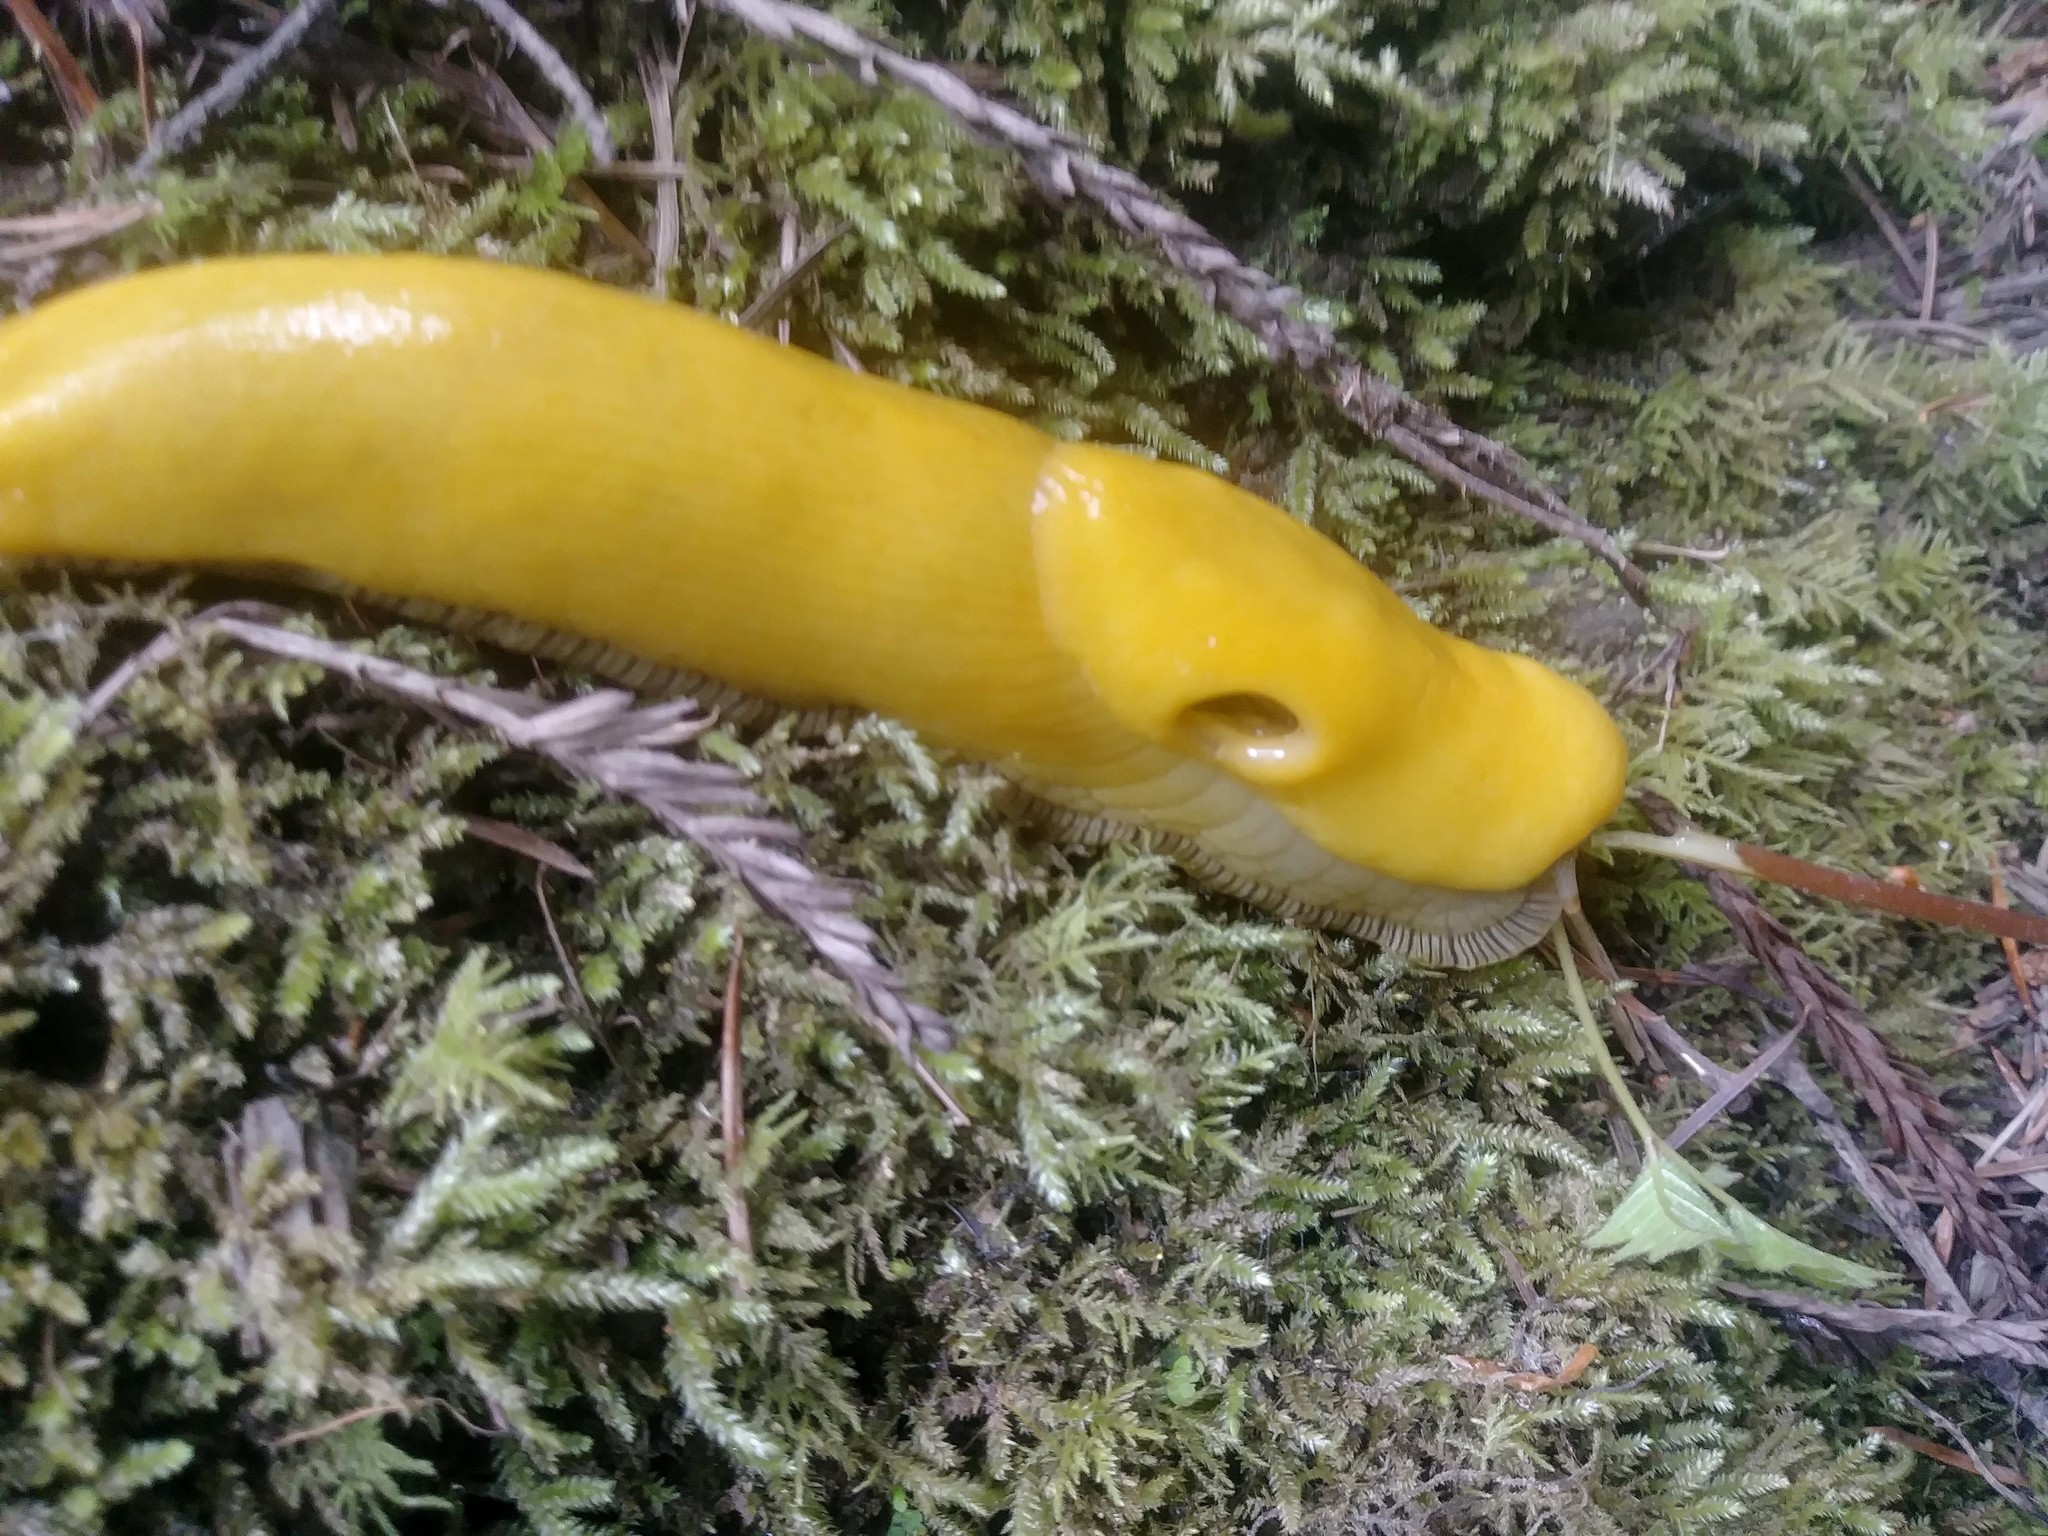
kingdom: Animalia
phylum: Mollusca
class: Gastropoda
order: Stylommatophora
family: Ariolimacidae
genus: Ariolimax
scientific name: Ariolimax dolichophallus
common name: Slender banana slug
